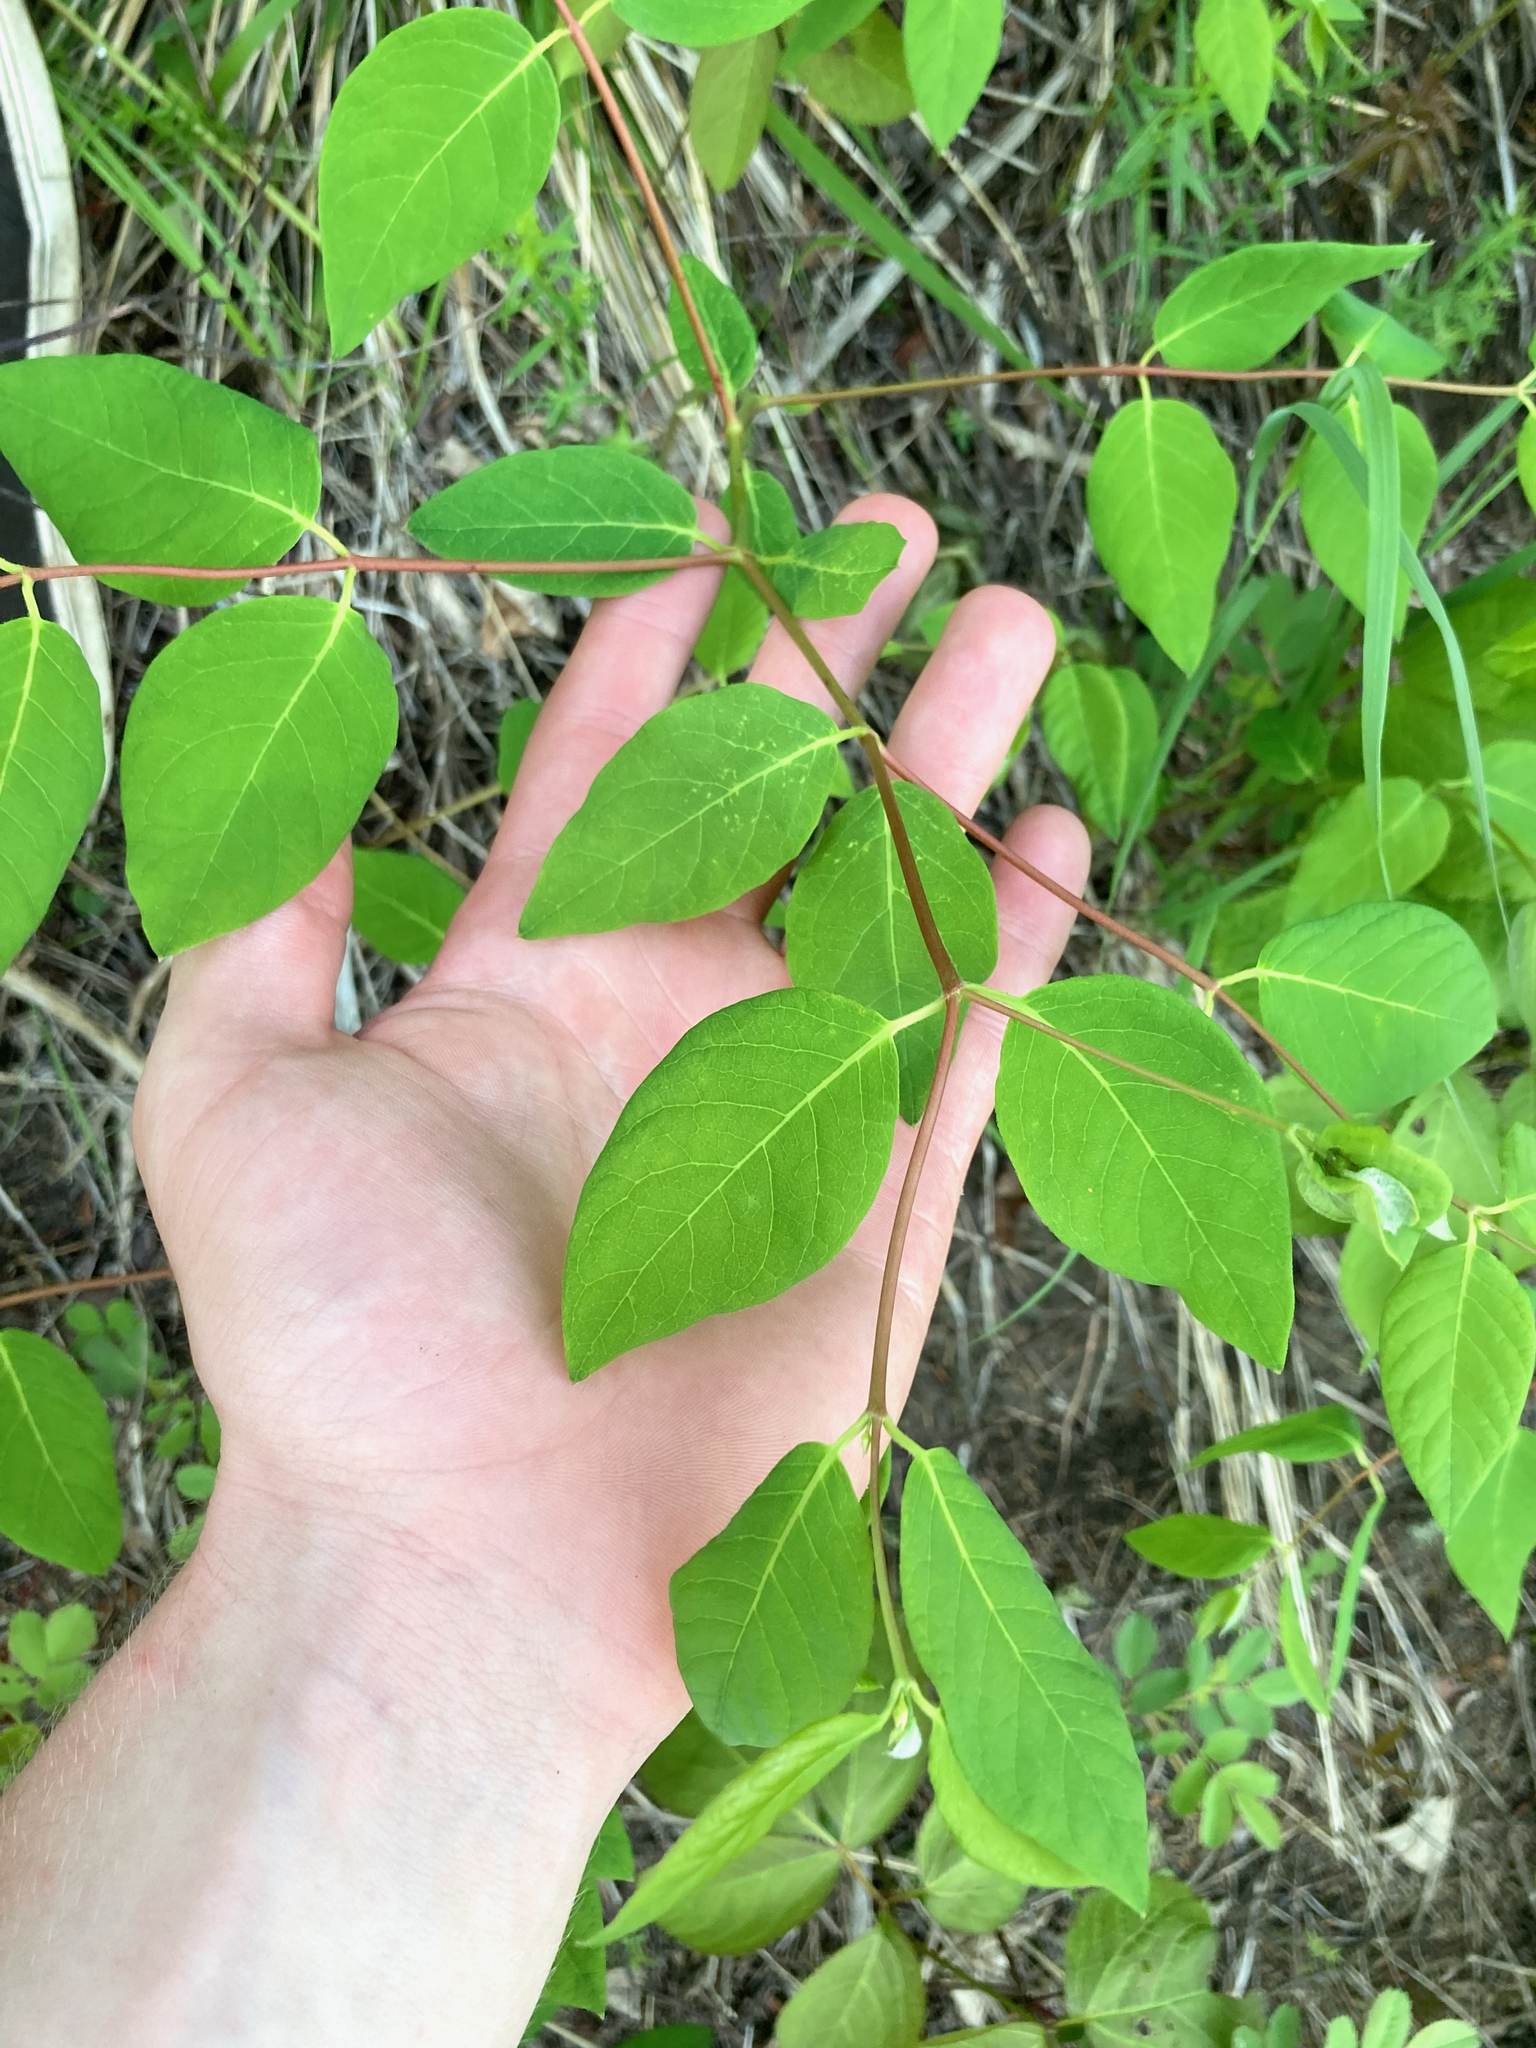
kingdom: Plantae
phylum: Tracheophyta
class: Magnoliopsida
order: Gentianales
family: Apocynaceae
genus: Apocynum
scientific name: Apocynum androsaemifolium
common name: Spreading dogbane
